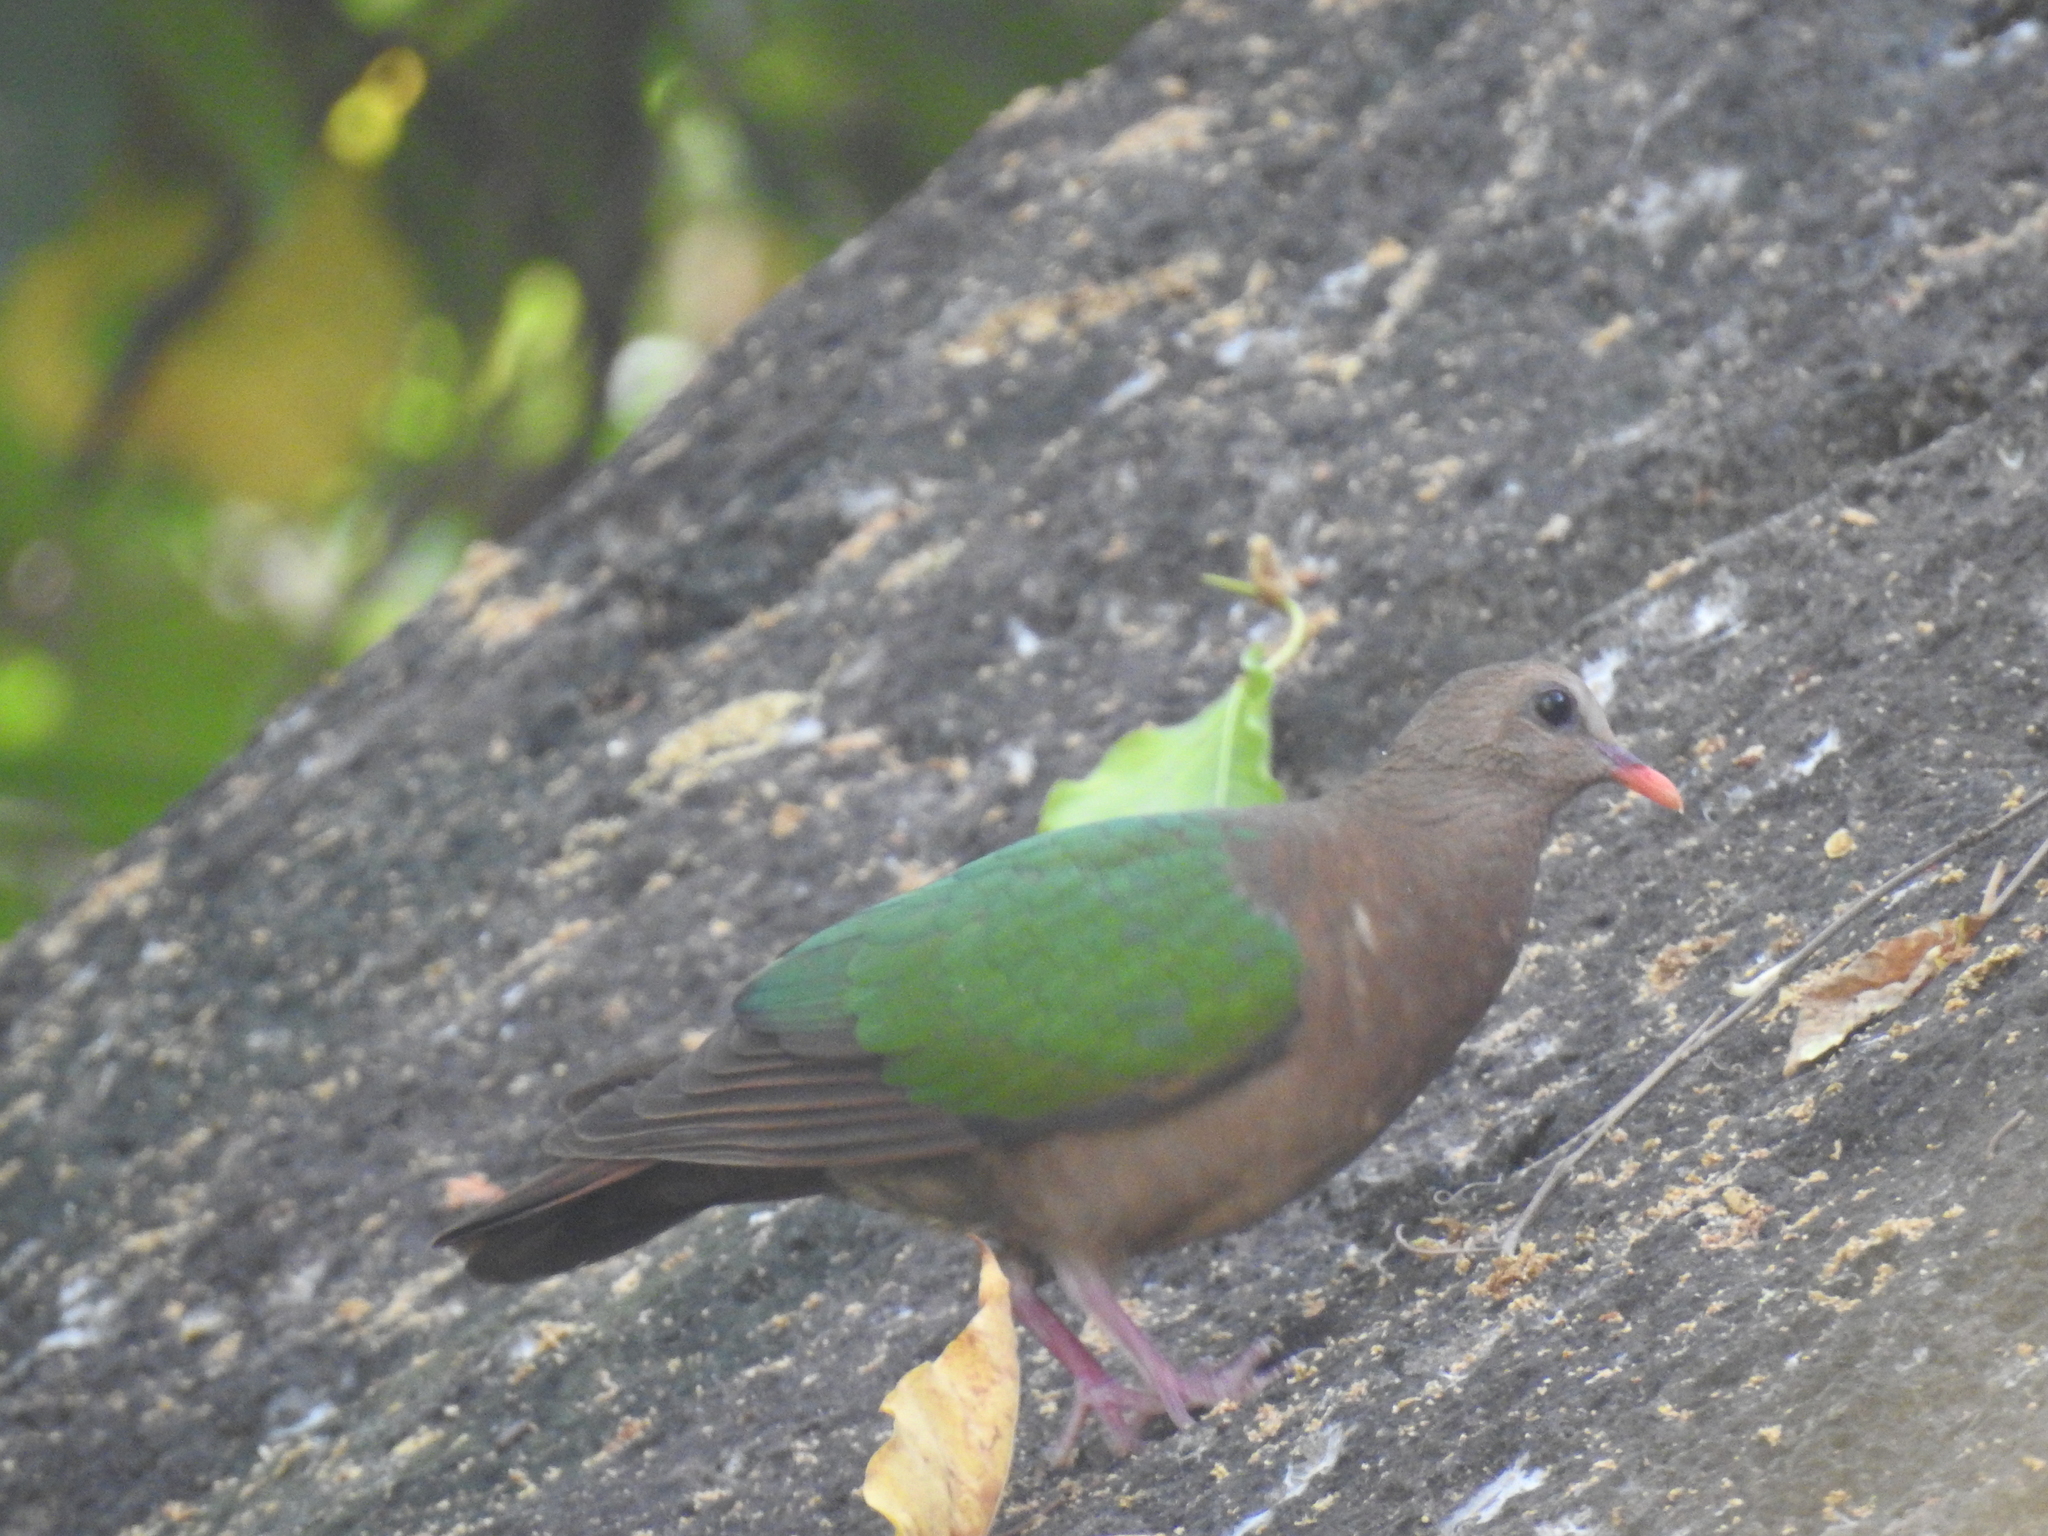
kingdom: Animalia
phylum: Chordata
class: Aves
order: Columbiformes
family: Columbidae
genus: Chalcophaps
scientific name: Chalcophaps indica
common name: Common emerald dove
